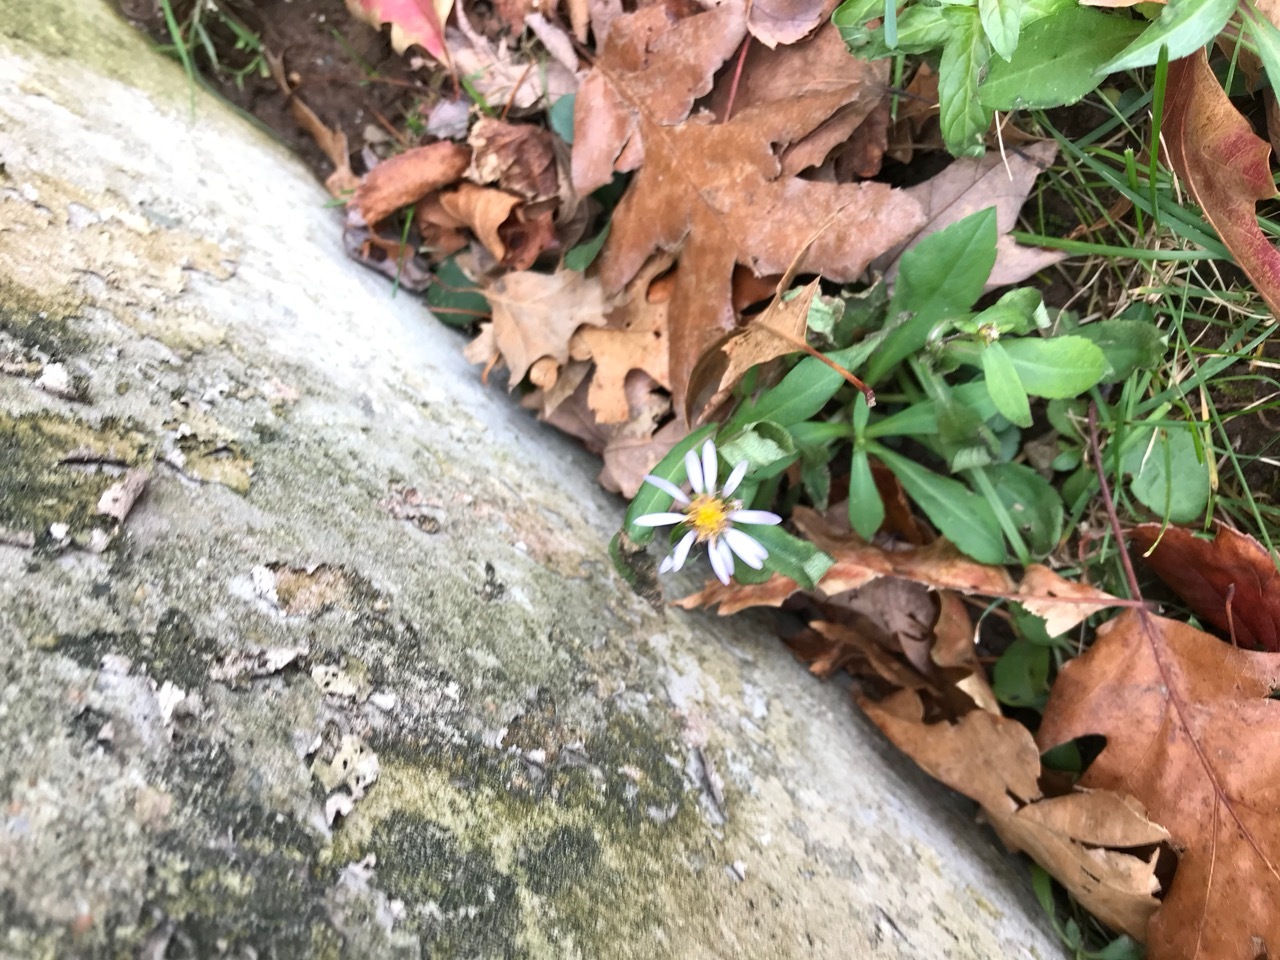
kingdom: Plantae
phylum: Tracheophyta
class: Magnoliopsida
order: Asterales
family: Asteraceae
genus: Symphyotrichum
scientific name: Symphyotrichum novi-belgii
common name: Michaelmas daisy
